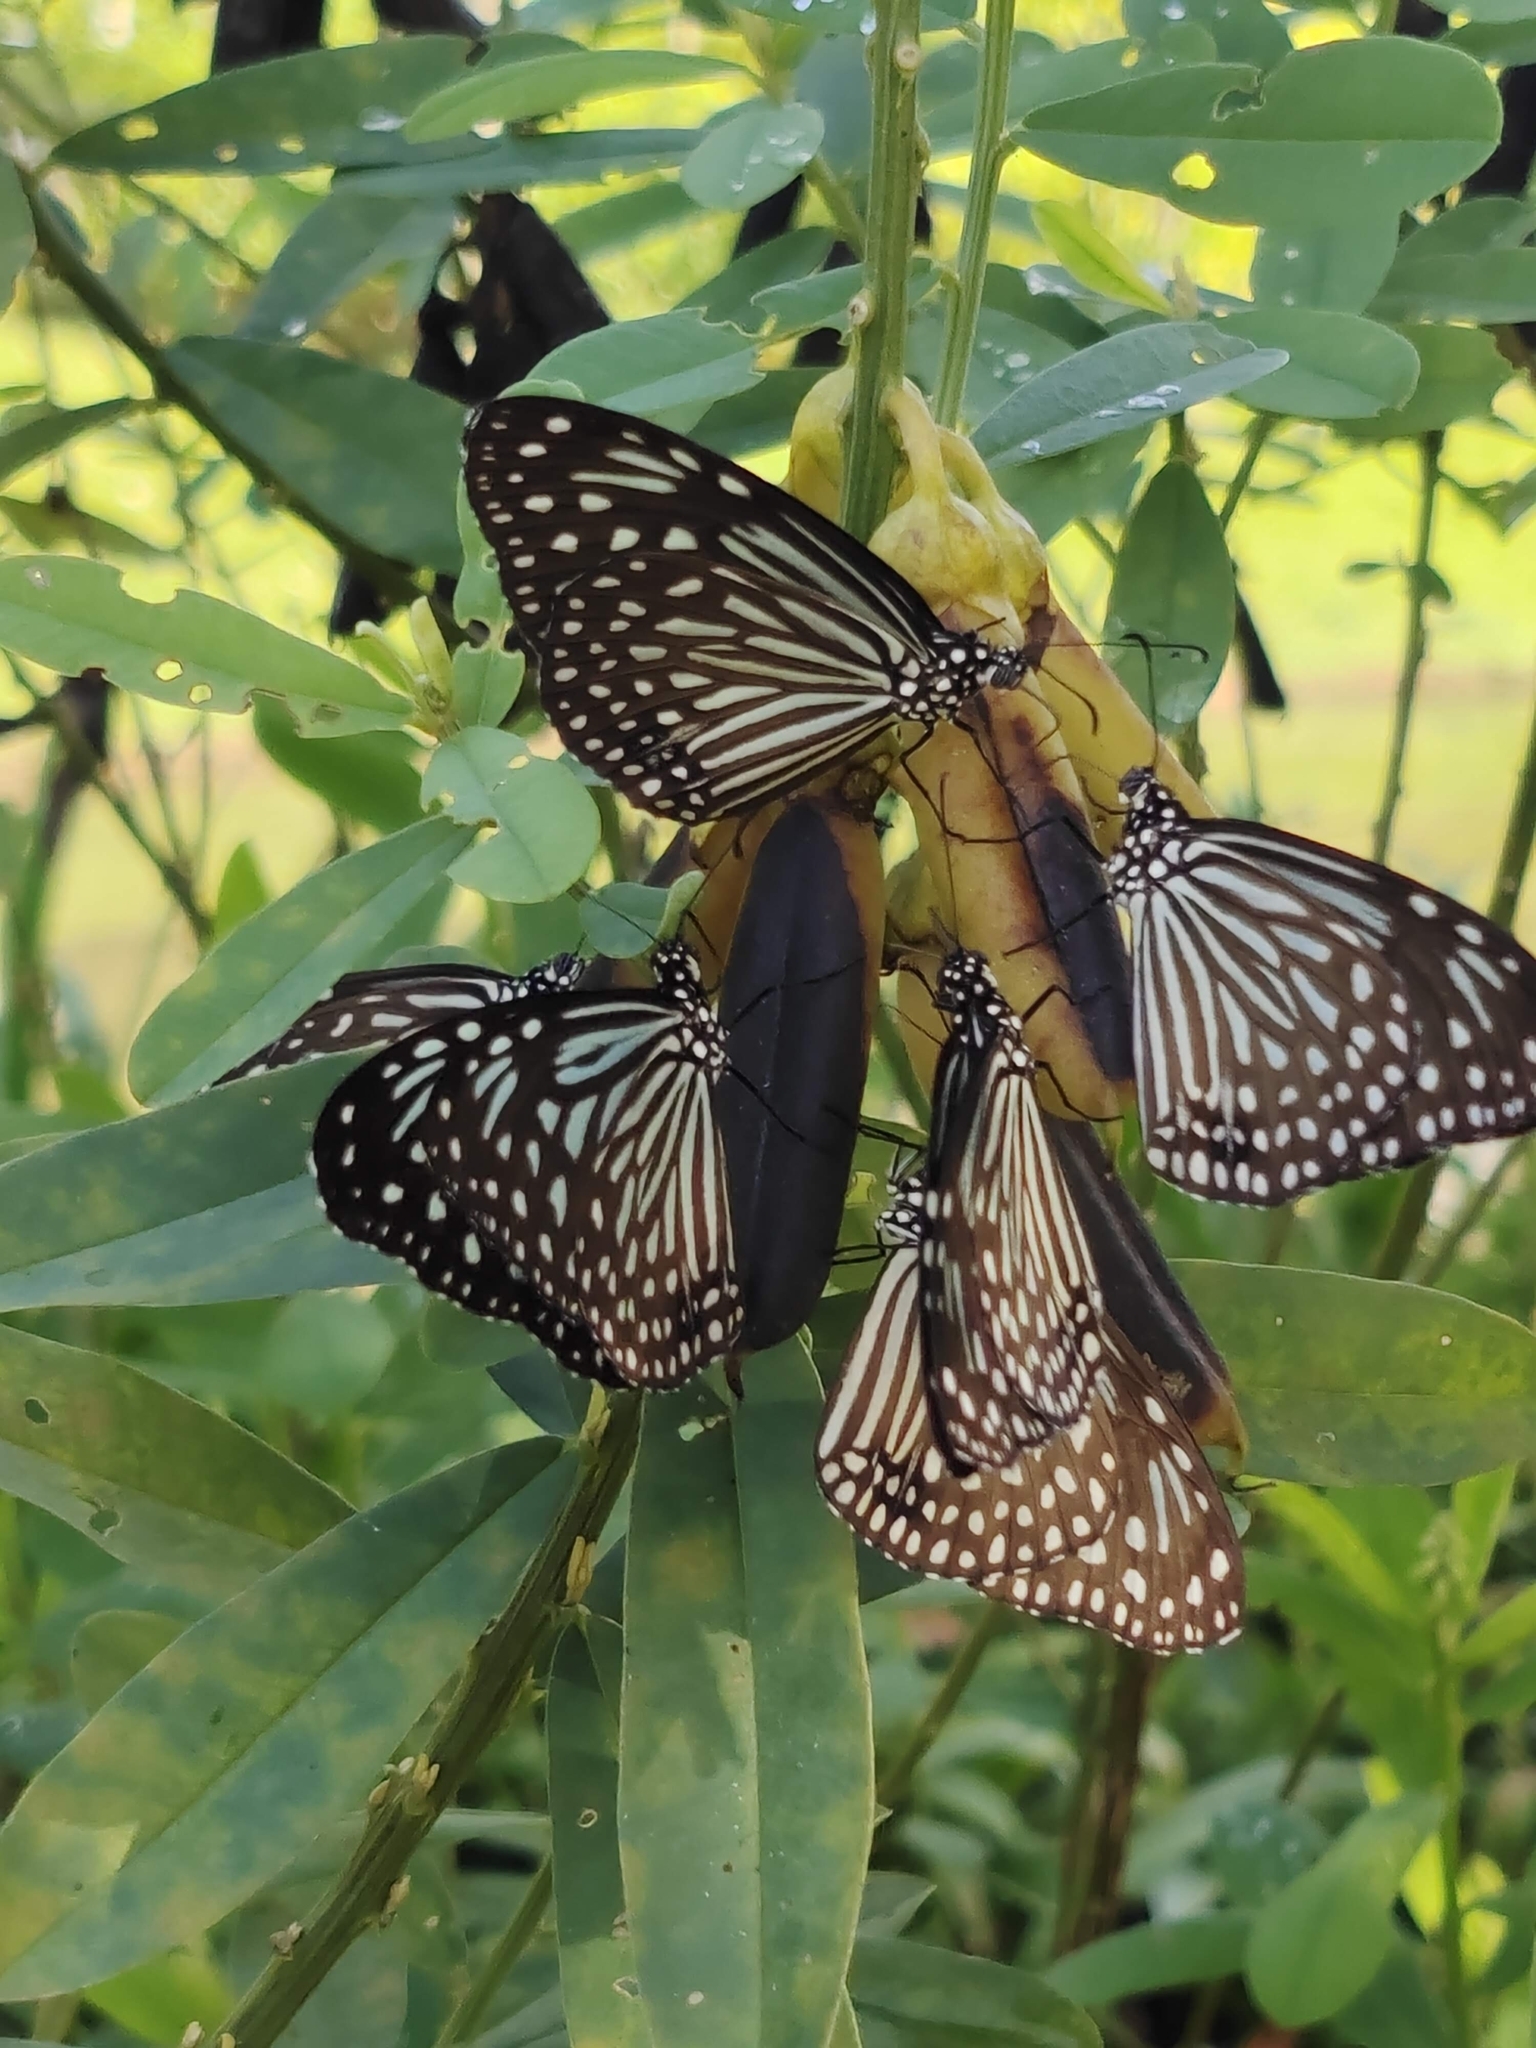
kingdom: Animalia
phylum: Arthropoda
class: Insecta
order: Lepidoptera
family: Nymphalidae
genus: Parantica
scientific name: Parantica agleoides
